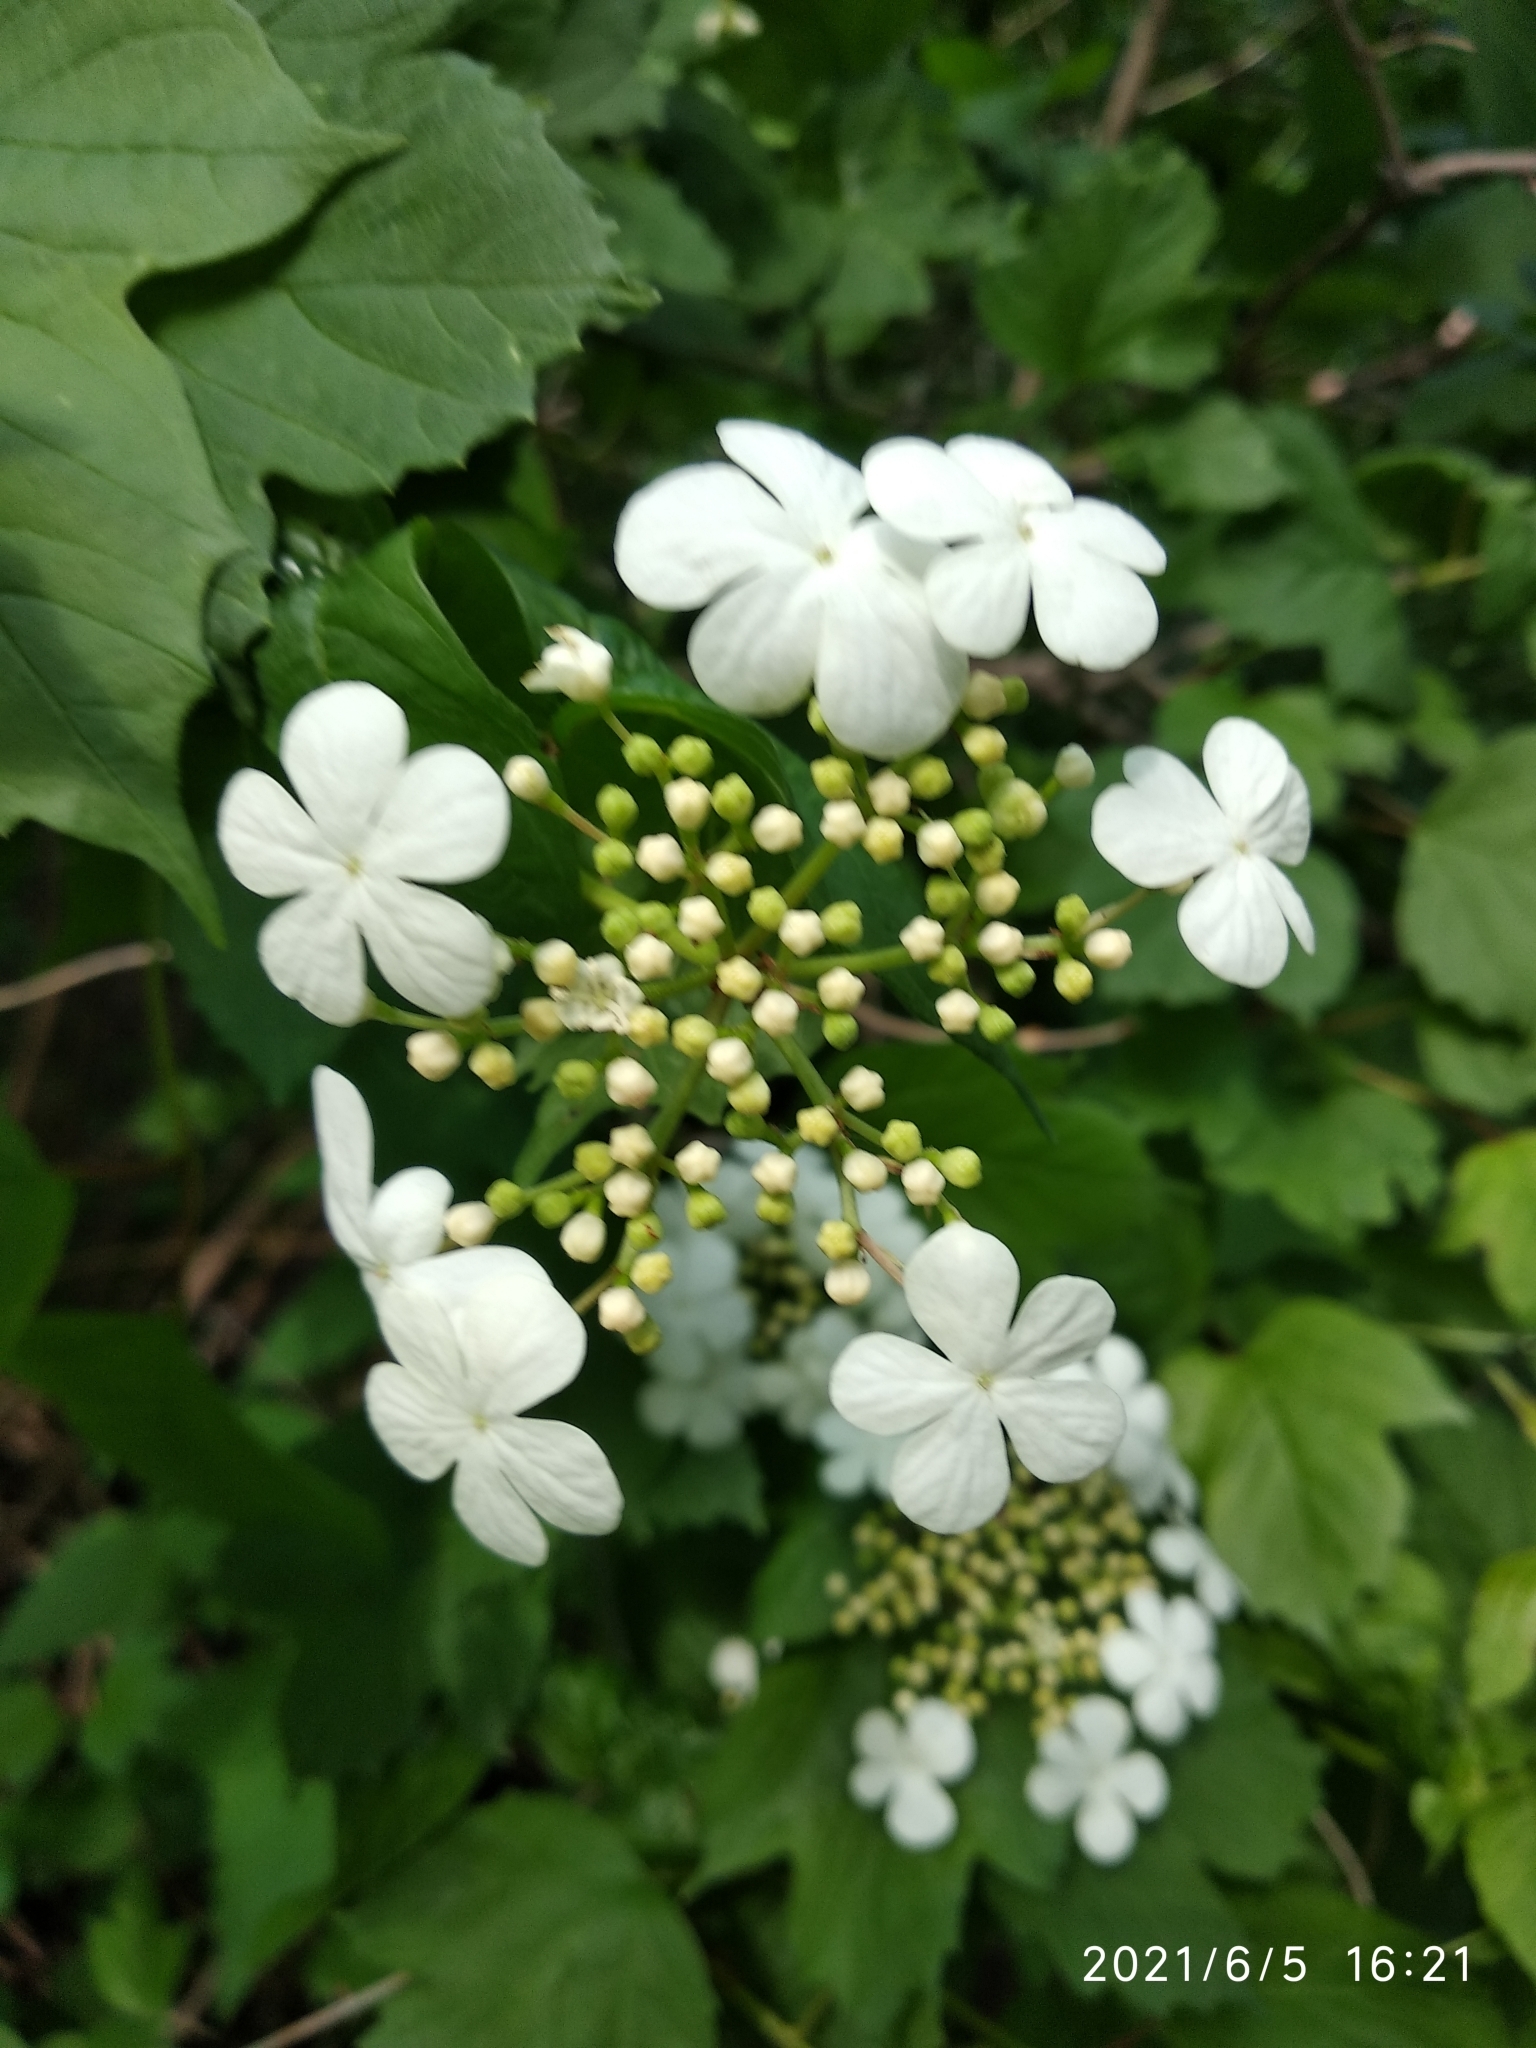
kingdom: Plantae
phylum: Tracheophyta
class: Magnoliopsida
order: Dipsacales
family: Viburnaceae
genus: Viburnum
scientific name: Viburnum opulus
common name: Guelder-rose
